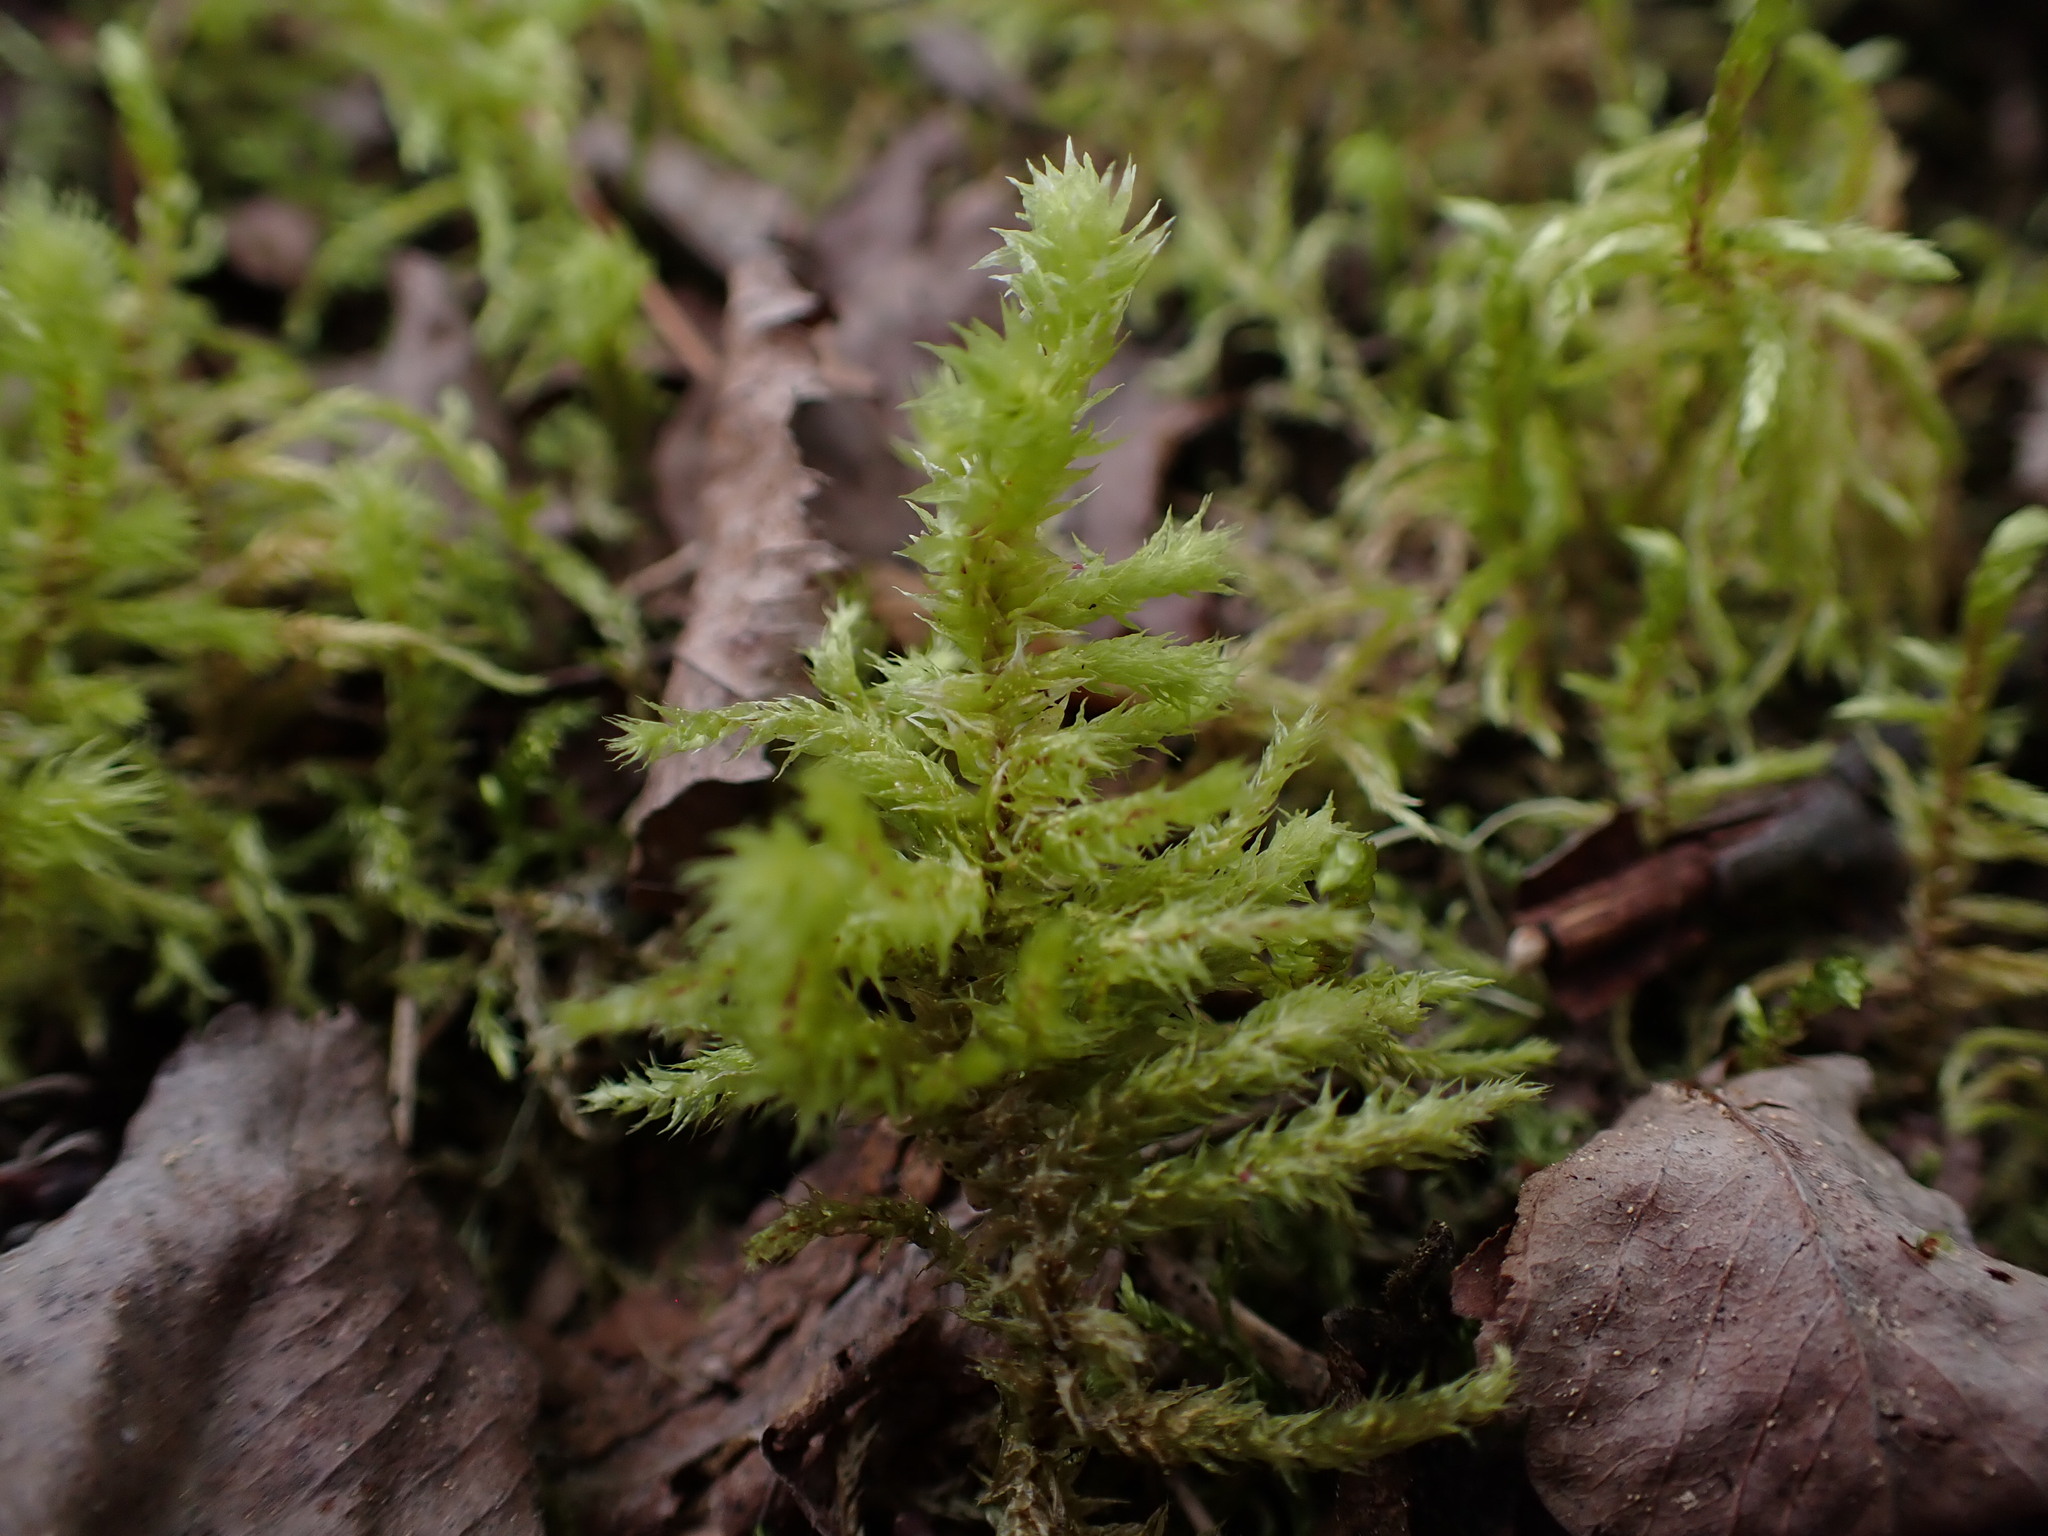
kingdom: Plantae
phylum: Bryophyta
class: Bryopsida
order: Hypnales
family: Hylocomiaceae
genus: Hylocomiadelphus
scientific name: Hylocomiadelphus triquetrus
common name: Rough goose neck moss
